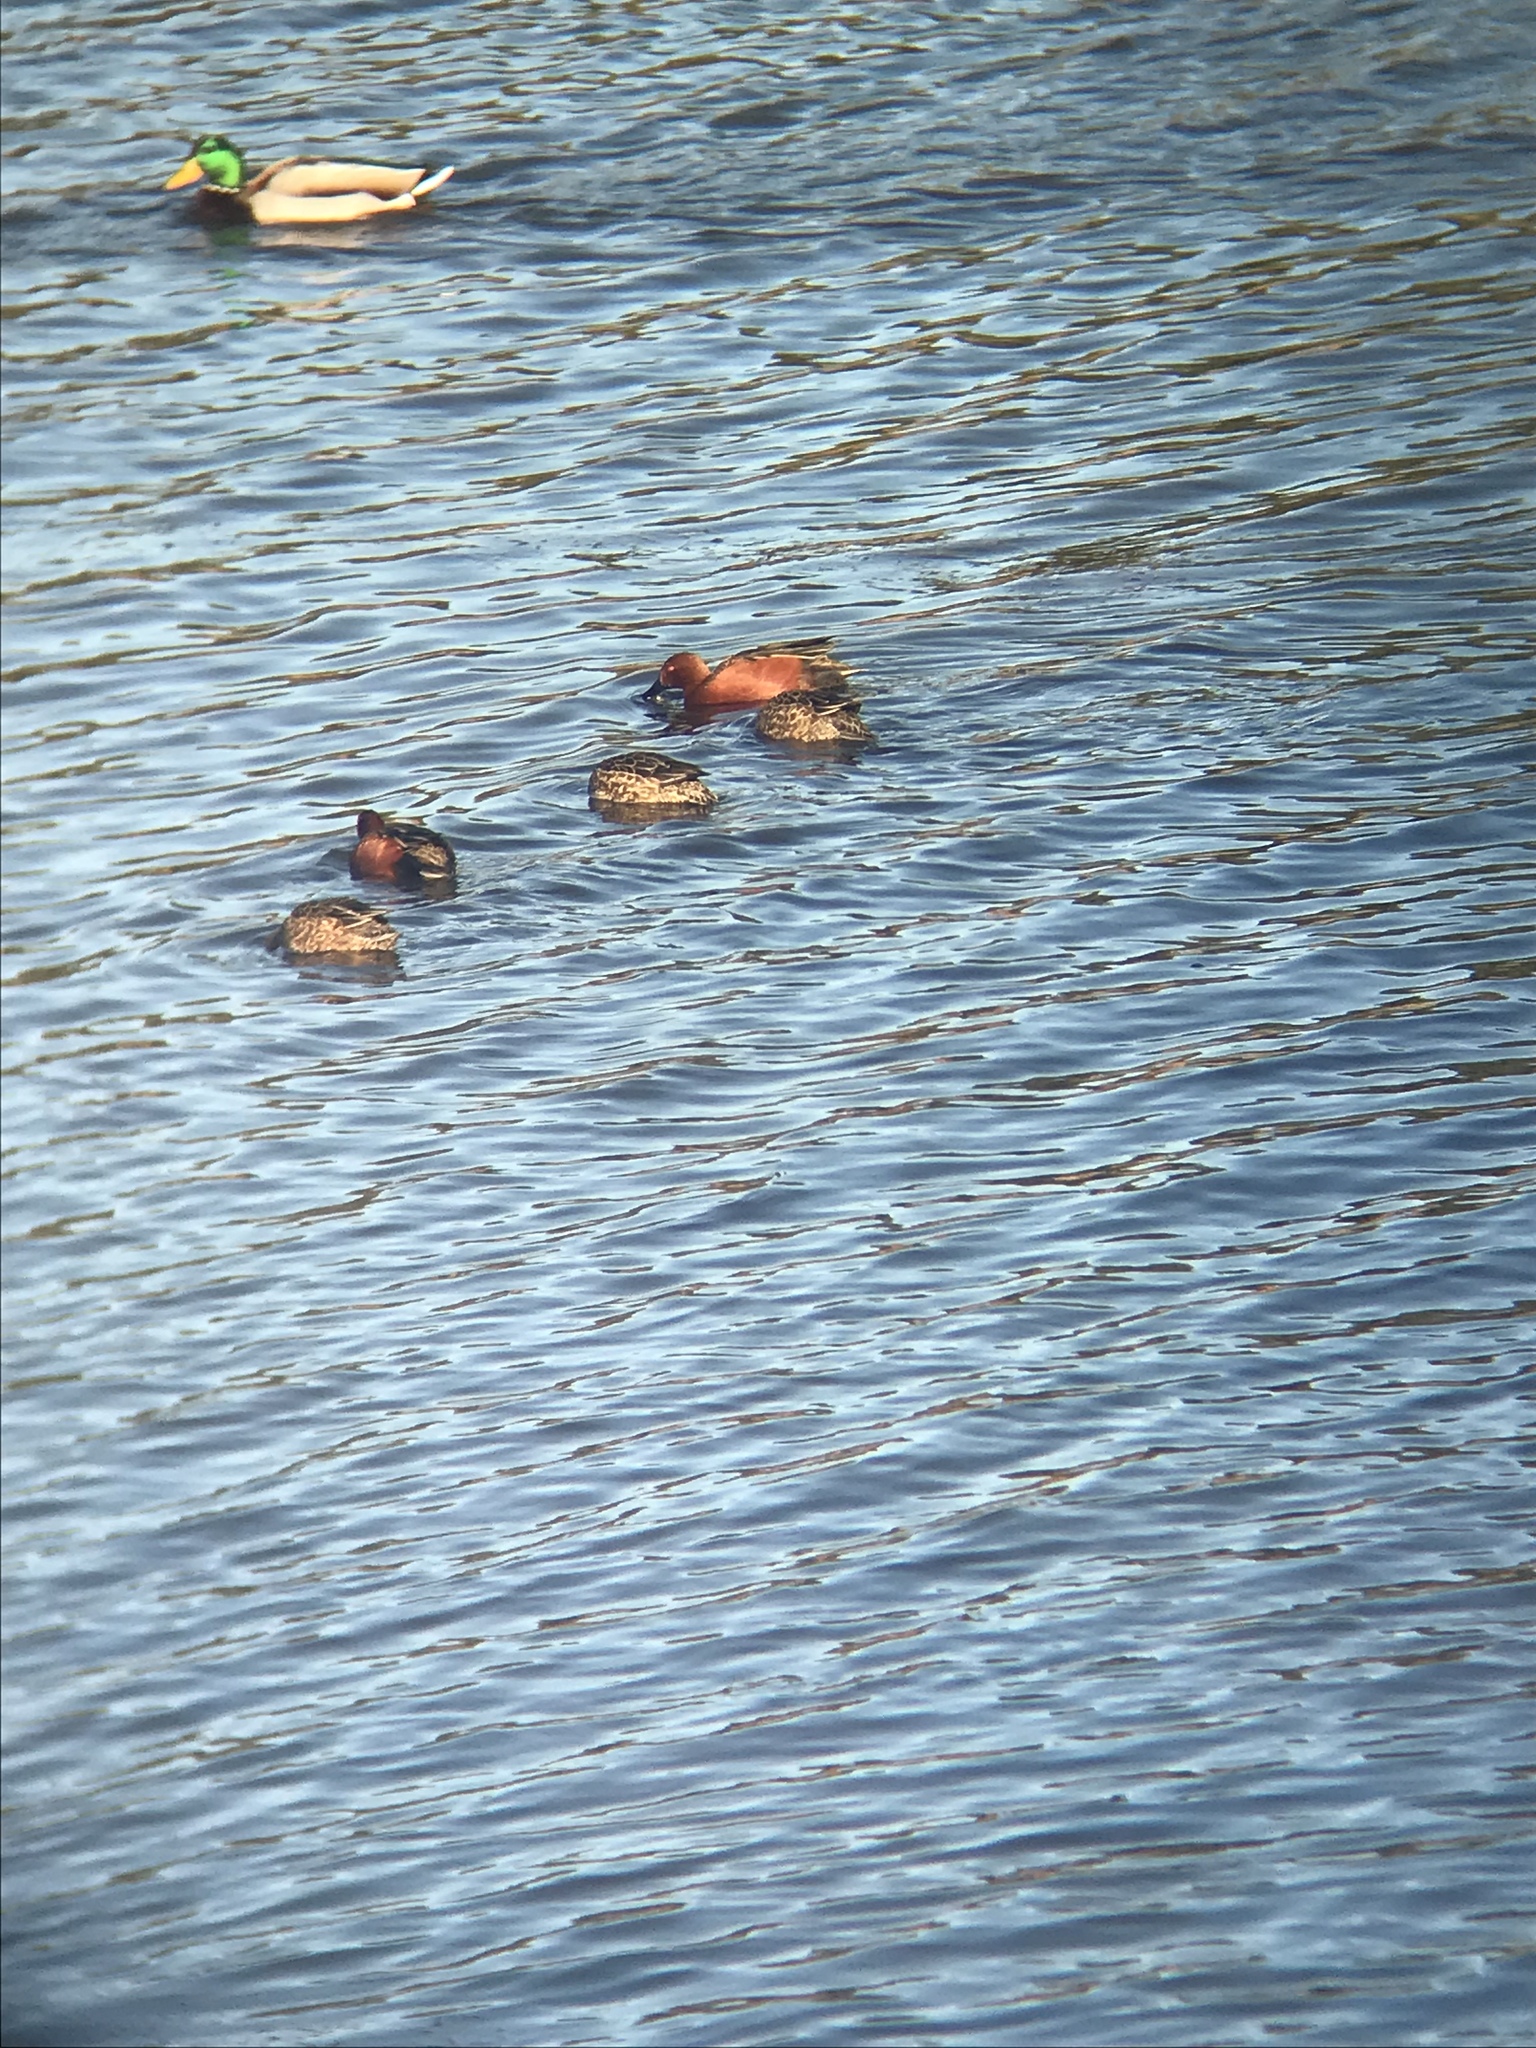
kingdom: Animalia
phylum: Chordata
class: Aves
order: Anseriformes
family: Anatidae
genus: Spatula
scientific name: Spatula cyanoptera
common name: Cinnamon teal
